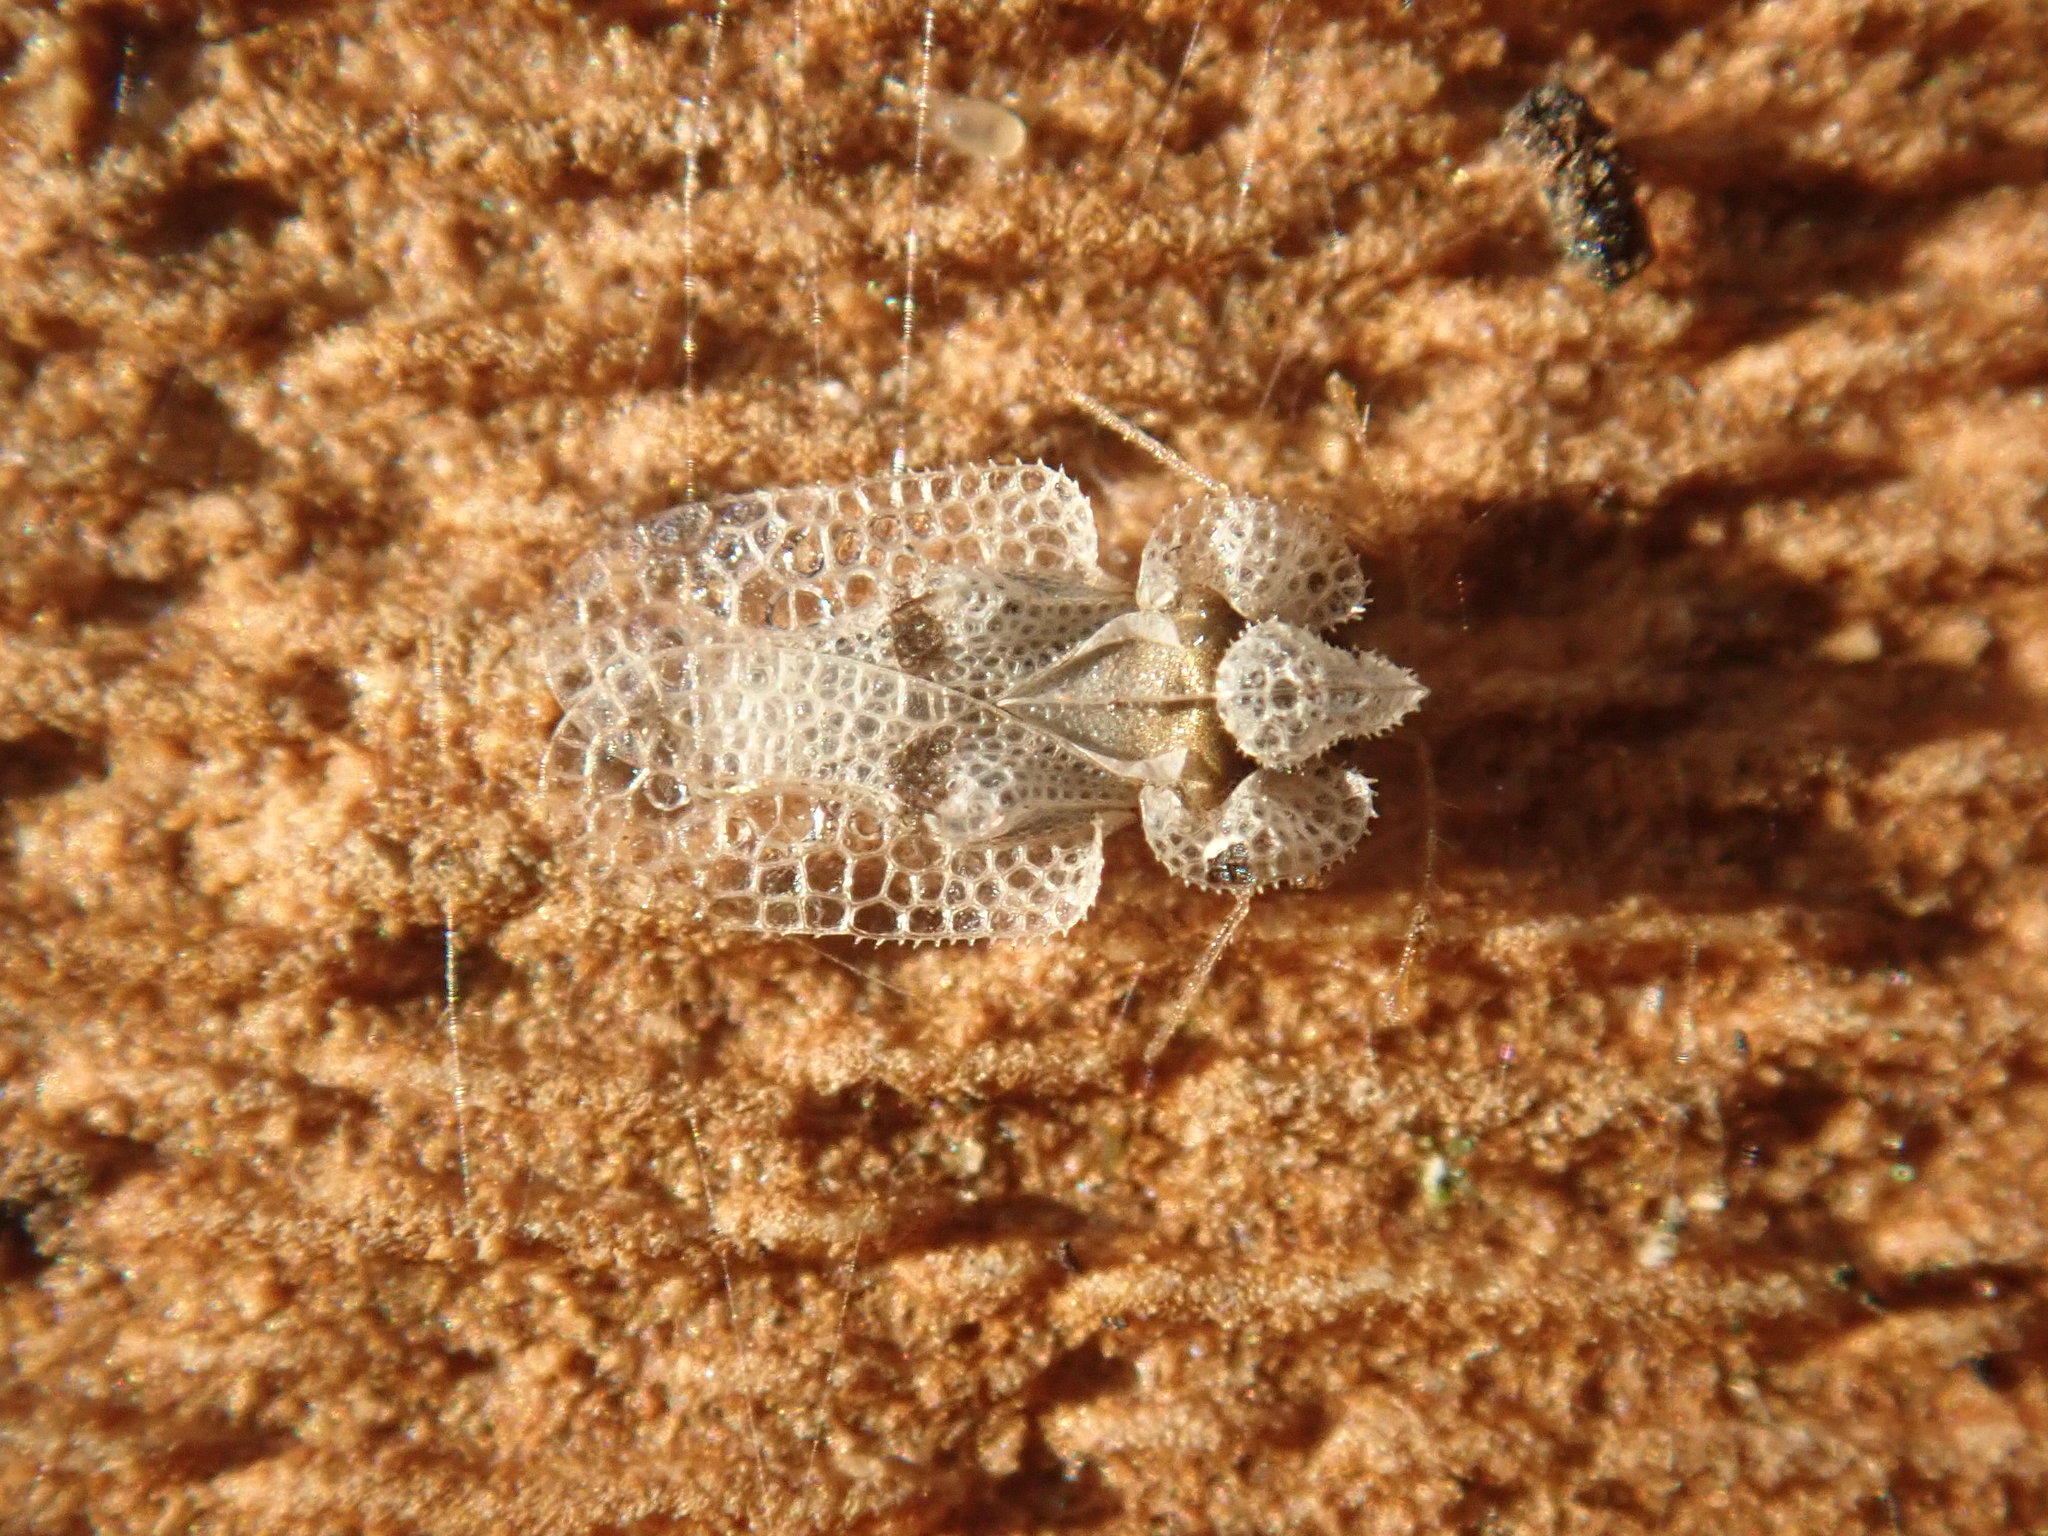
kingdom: Animalia
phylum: Arthropoda
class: Insecta
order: Hemiptera
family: Tingidae
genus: Corythucha
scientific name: Corythucha ciliata
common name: Sycamore lace bug
